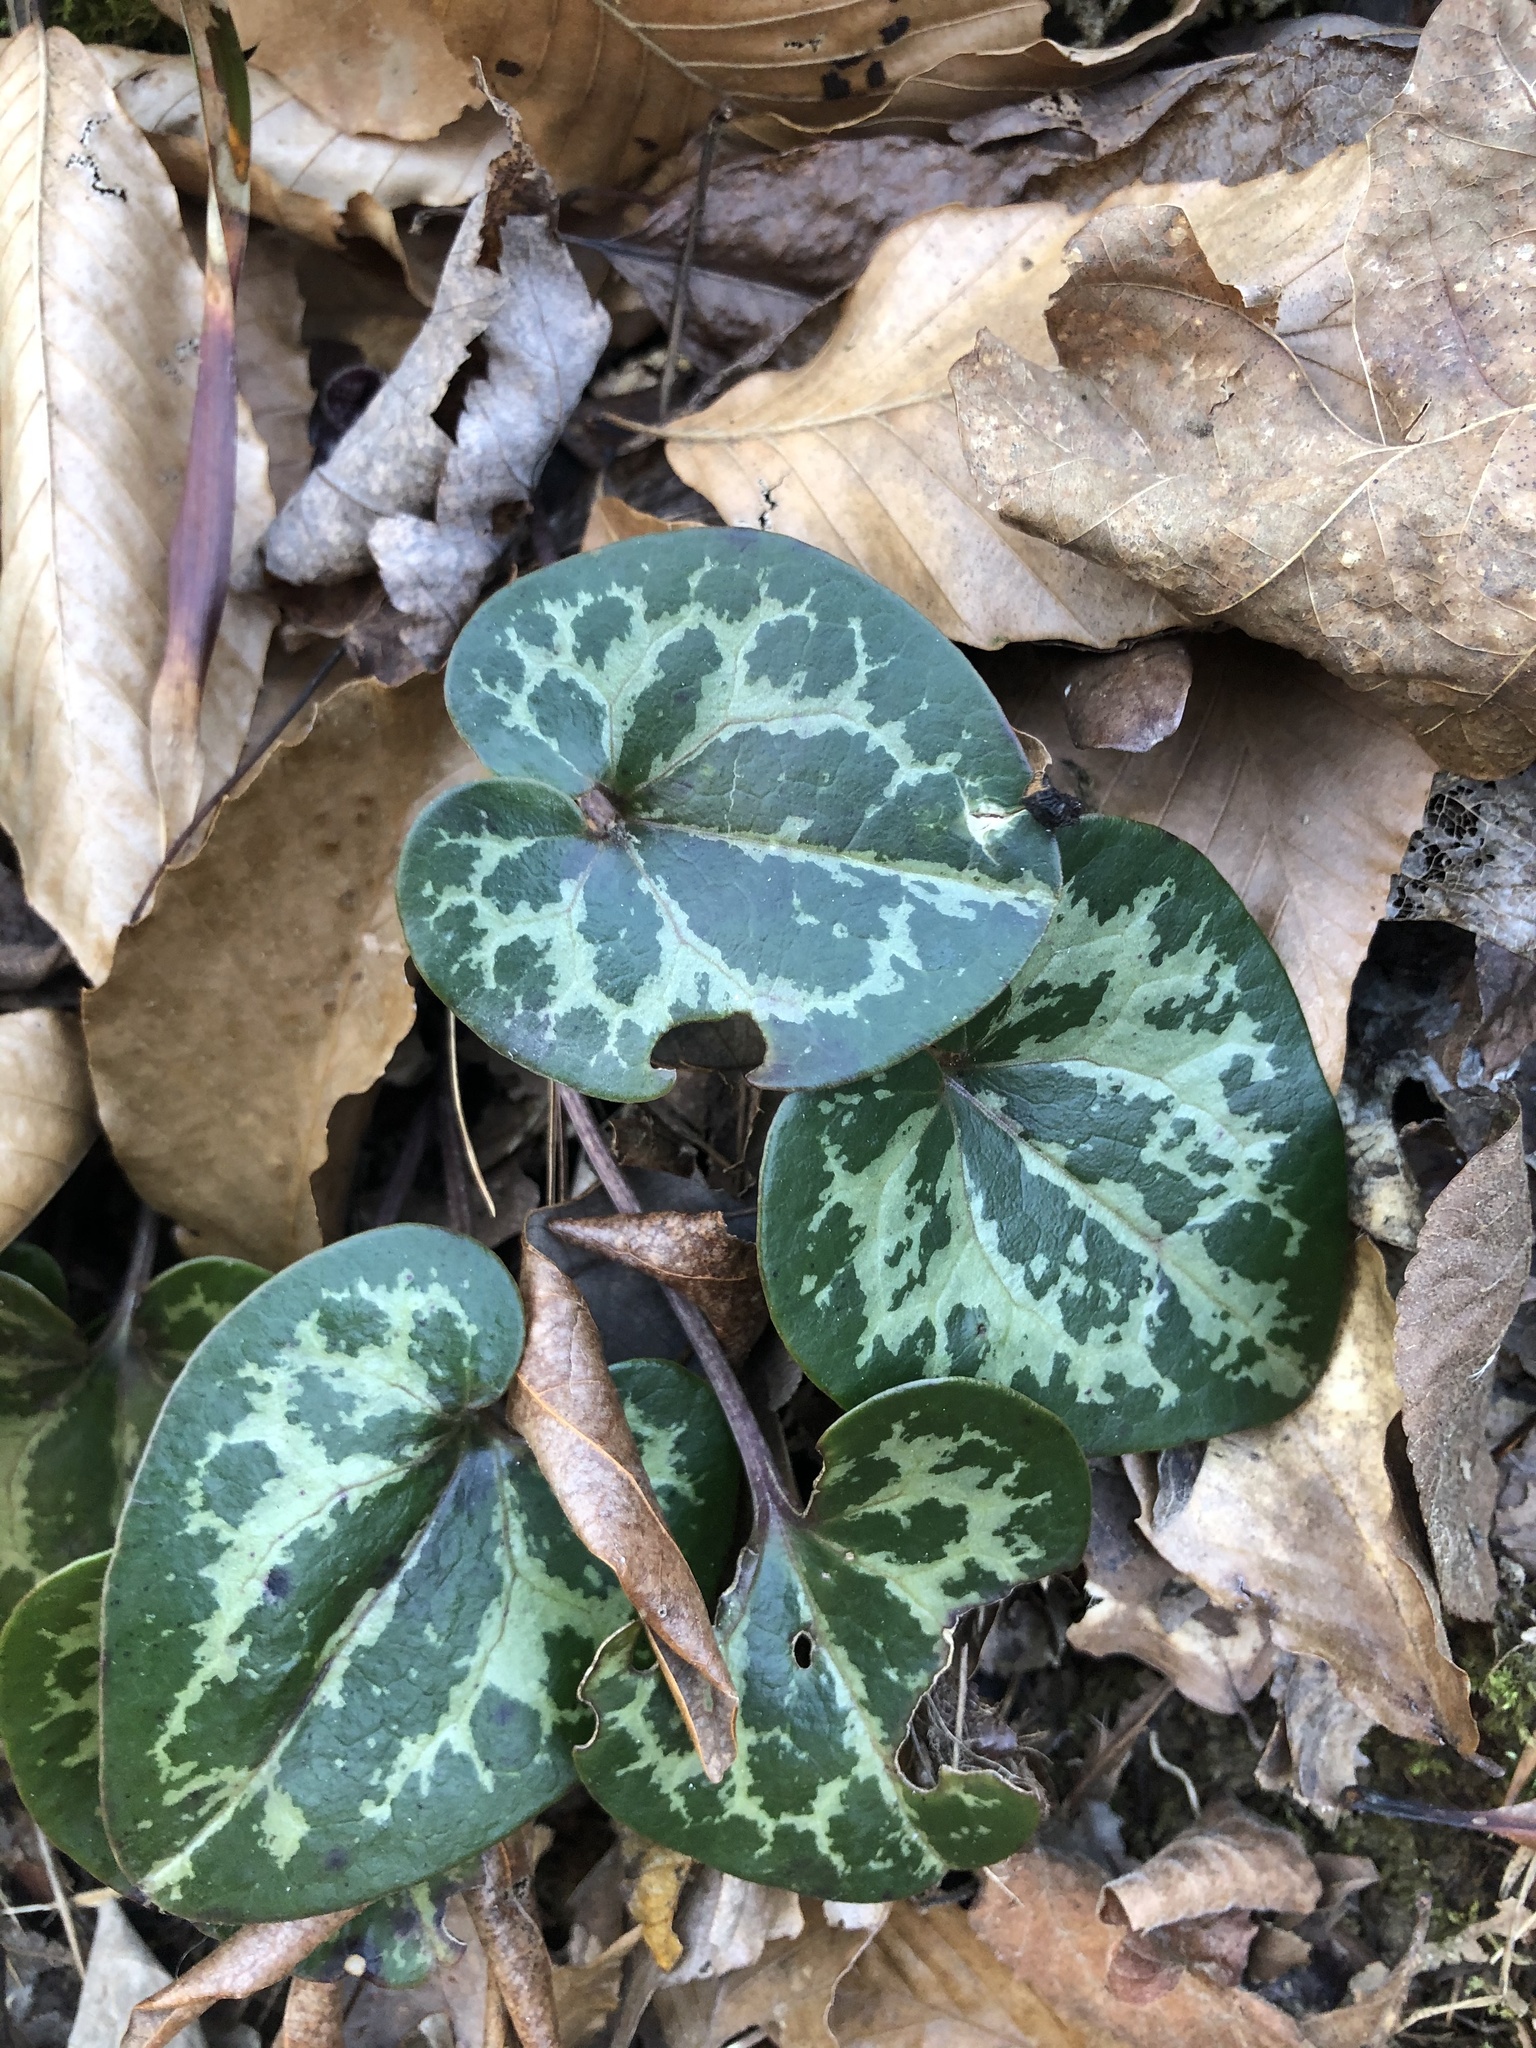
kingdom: Plantae
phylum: Tracheophyta
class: Magnoliopsida
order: Piperales
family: Aristolochiaceae
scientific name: Aristolochiaceae
